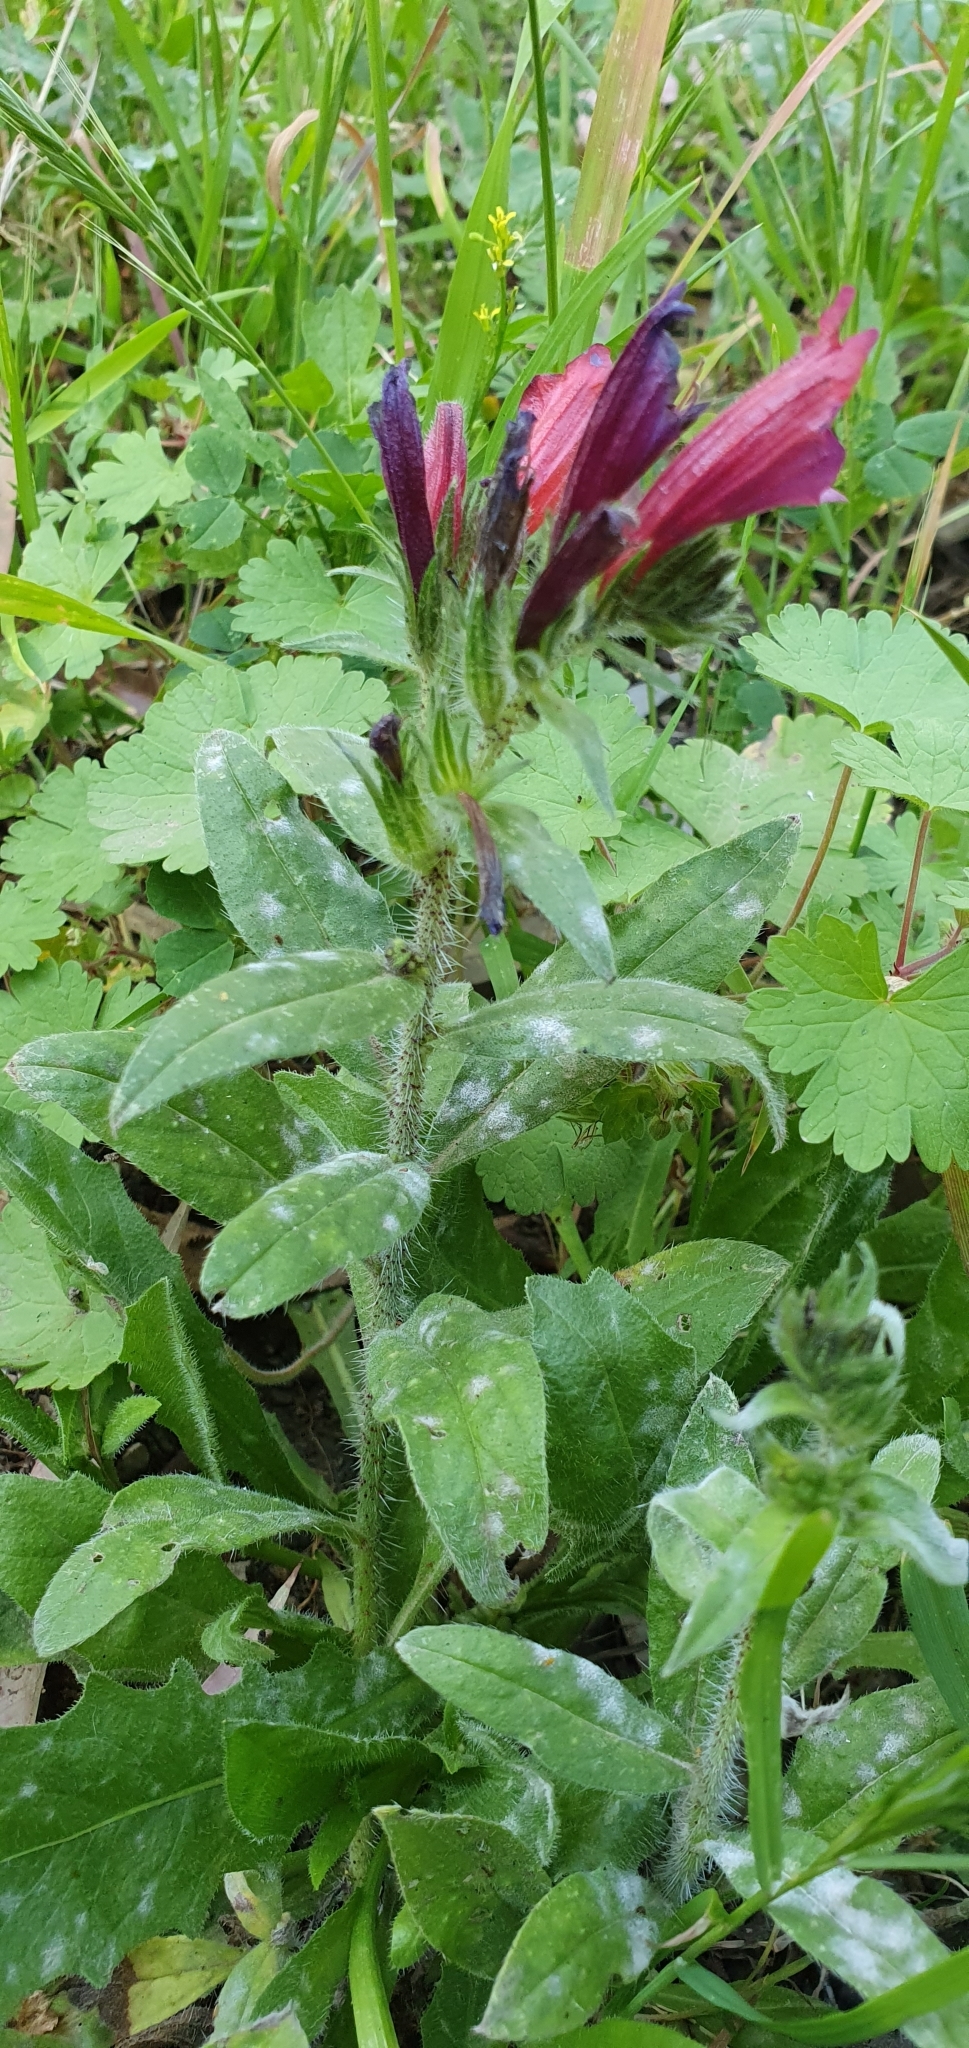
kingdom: Plantae
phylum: Tracheophyta
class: Magnoliopsida
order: Boraginales
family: Boraginaceae
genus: Echium
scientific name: Echium creticum
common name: Cretan viper's bugloss
